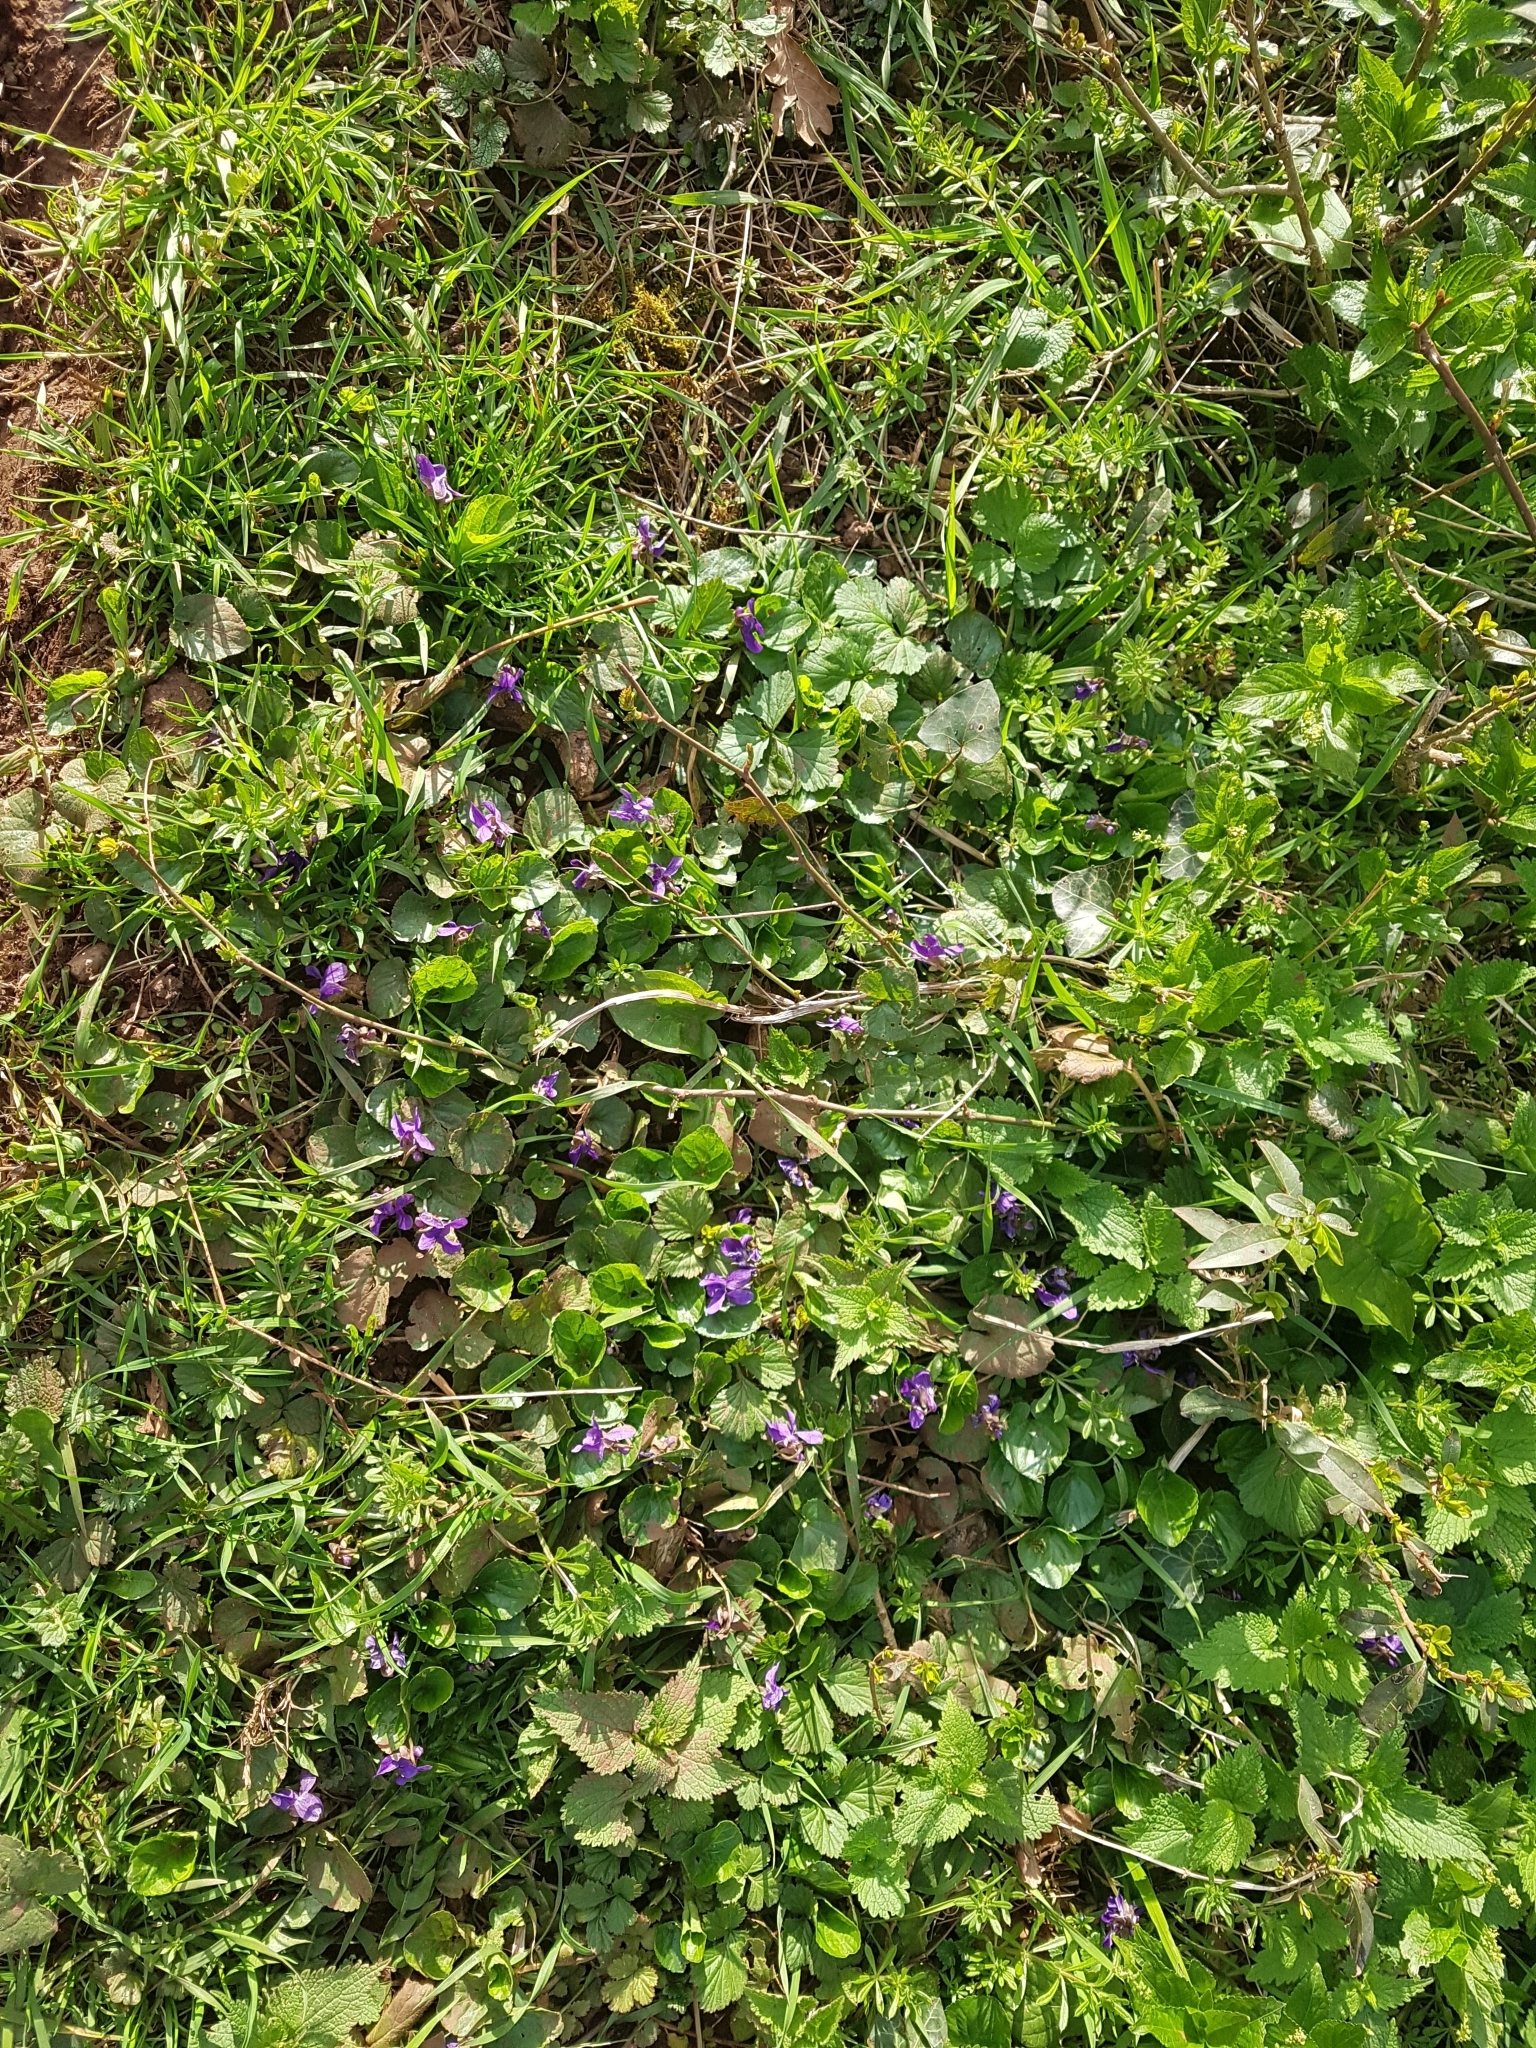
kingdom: Plantae
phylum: Tracheophyta
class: Magnoliopsida
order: Malpighiales
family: Violaceae
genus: Viola
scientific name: Viola riviniana
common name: Common dog-violet
